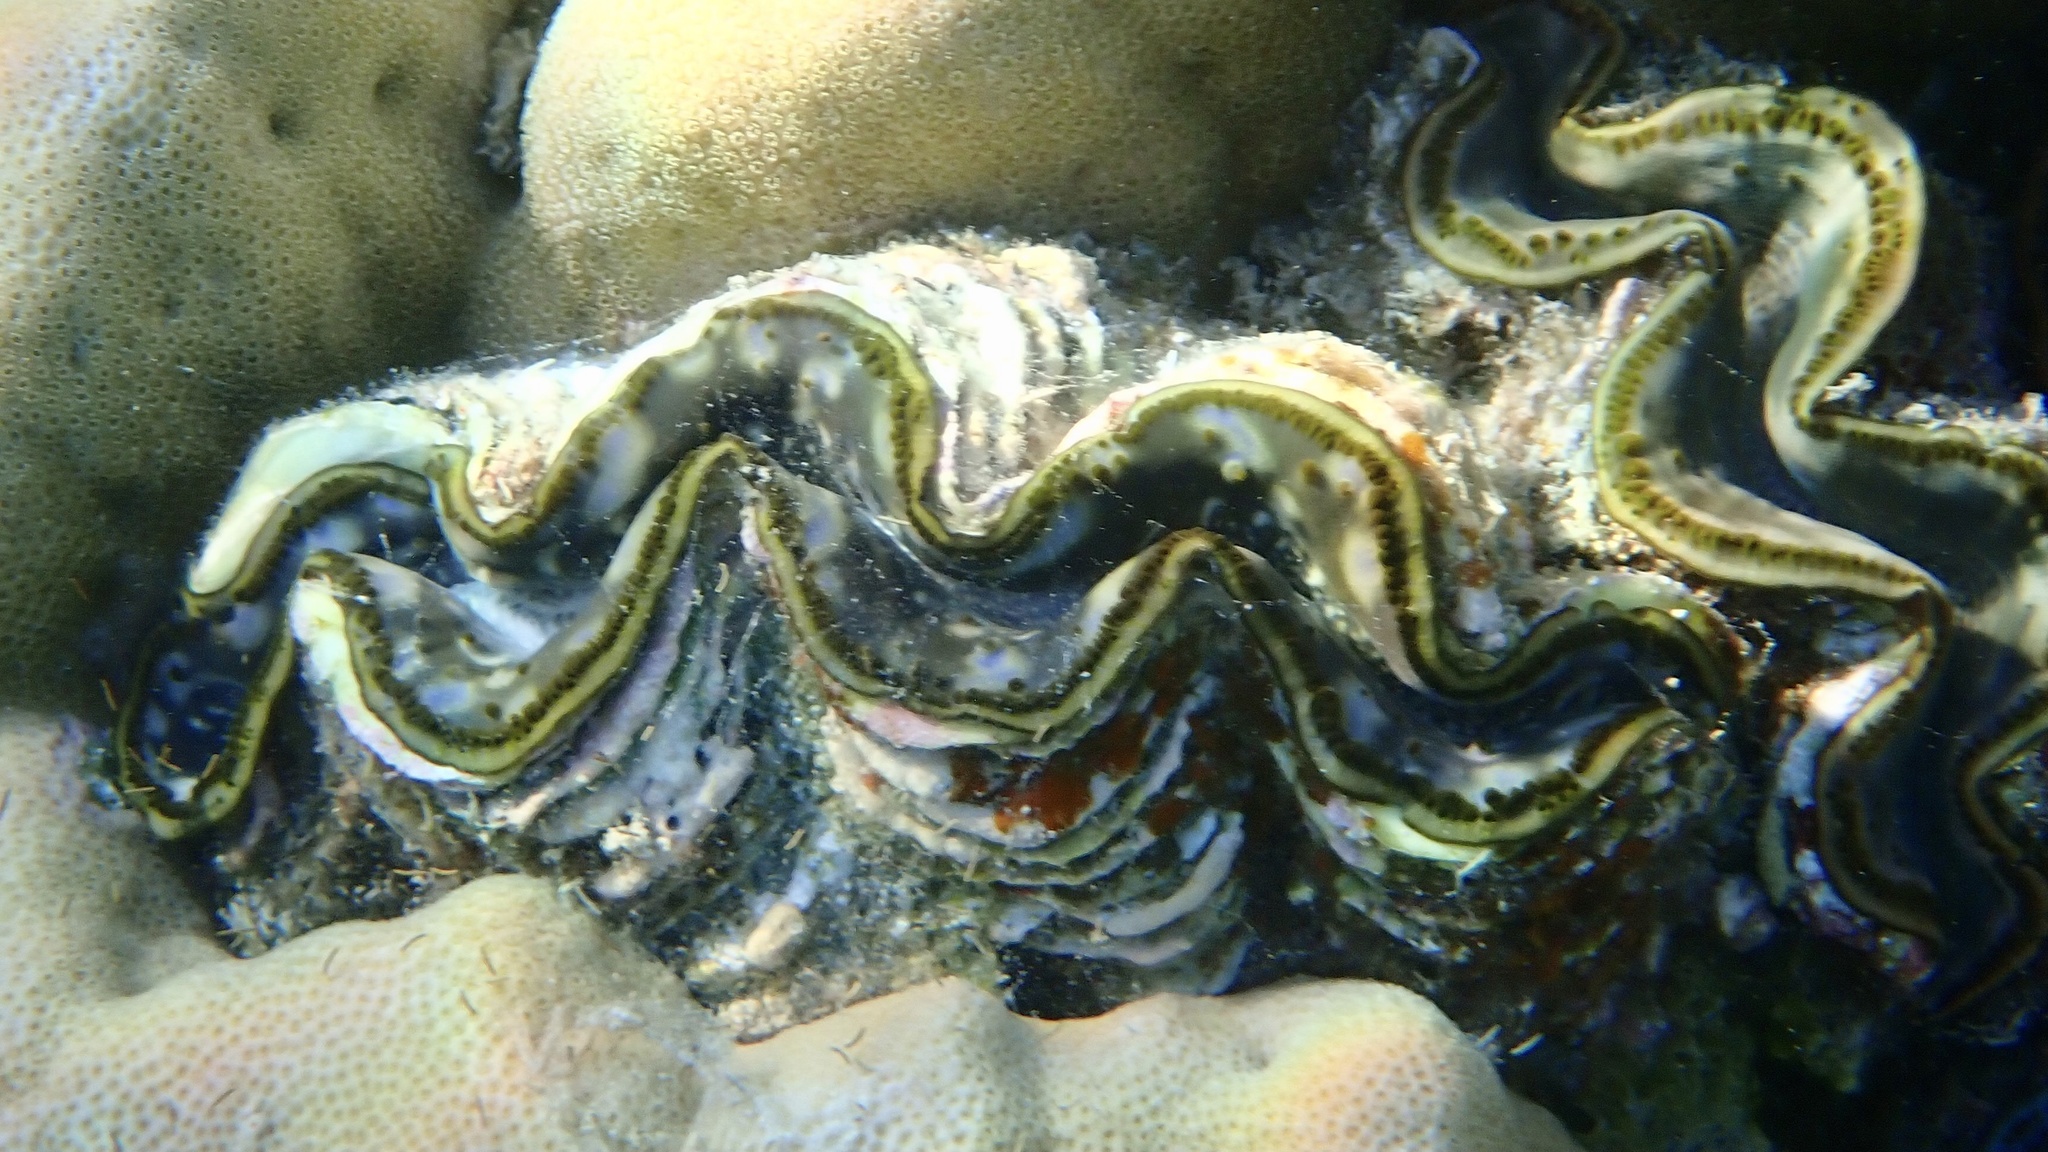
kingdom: Animalia
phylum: Mollusca
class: Bivalvia
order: Cardiida
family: Cardiidae
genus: Tridacna
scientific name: Tridacna maxima
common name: Small giant clam
